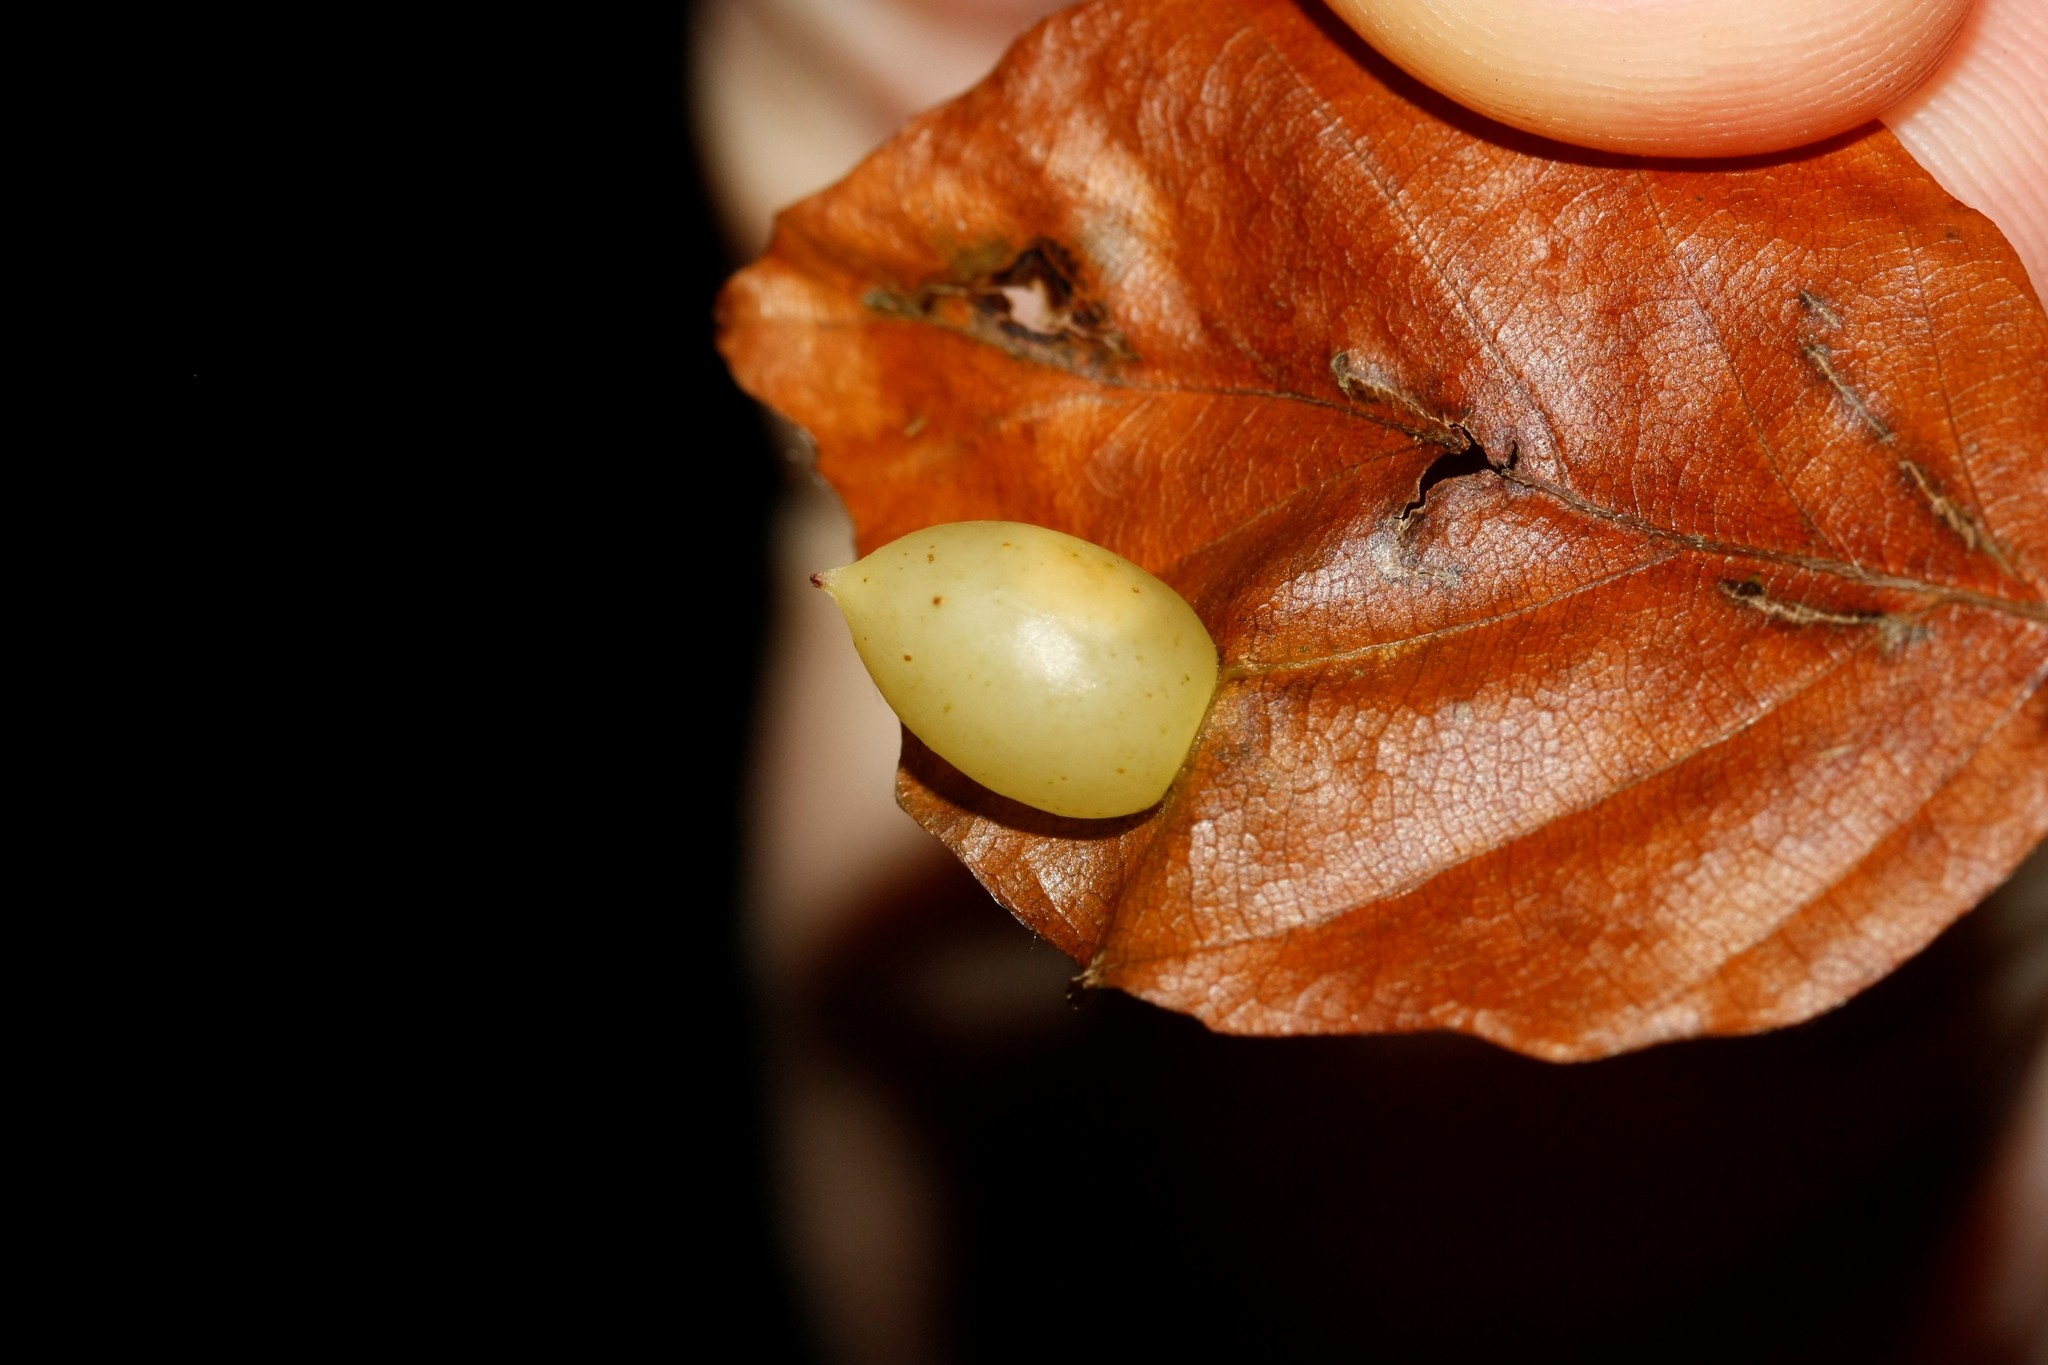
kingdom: Animalia
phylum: Arthropoda
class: Insecta
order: Diptera
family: Cecidomyiidae
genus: Mikiola
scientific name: Mikiola fagi
